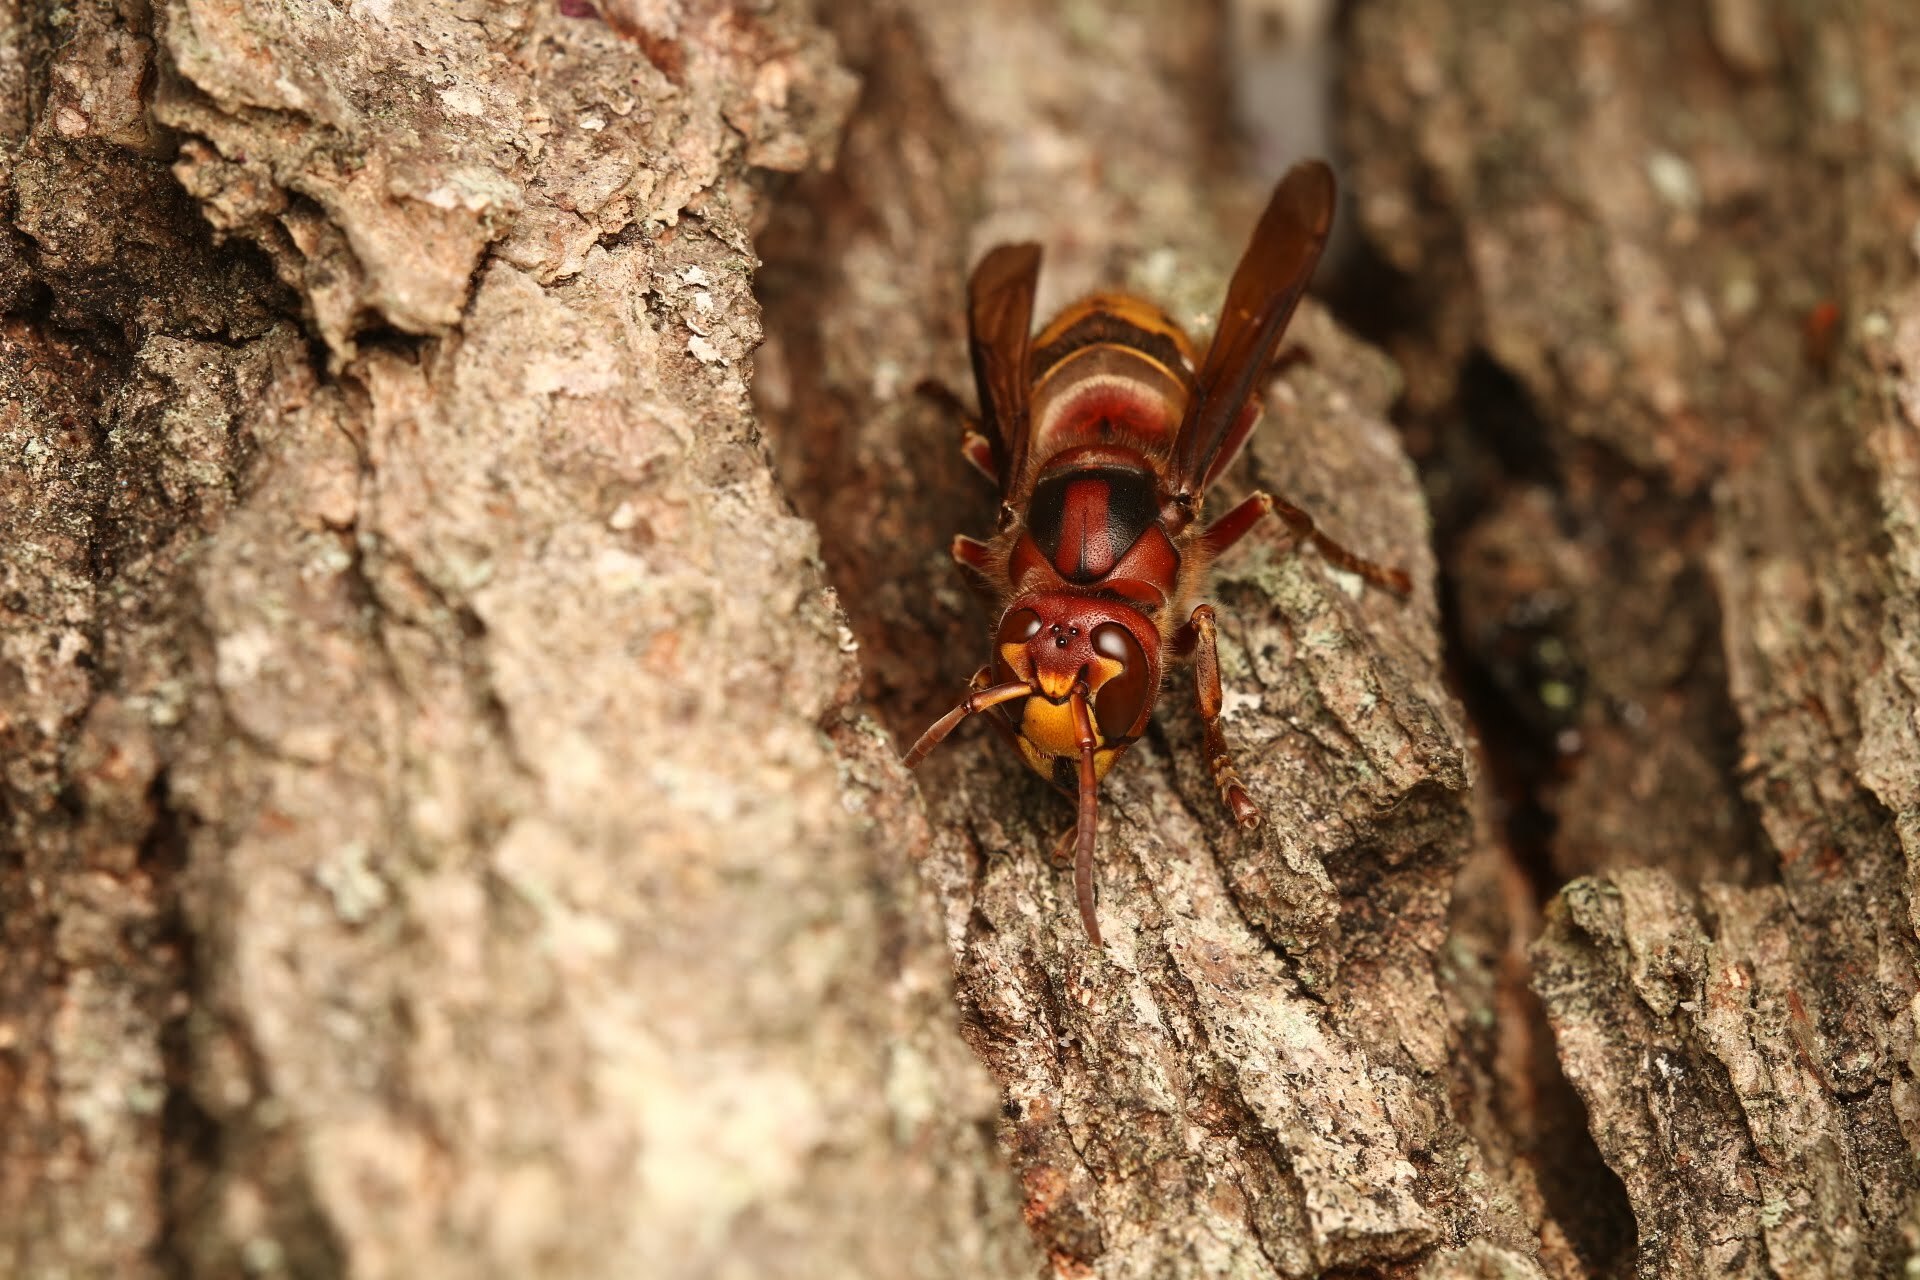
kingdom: Animalia
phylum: Arthropoda
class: Insecta
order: Hymenoptera
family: Vespidae
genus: Vespa
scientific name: Vespa crabro
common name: Hornet
